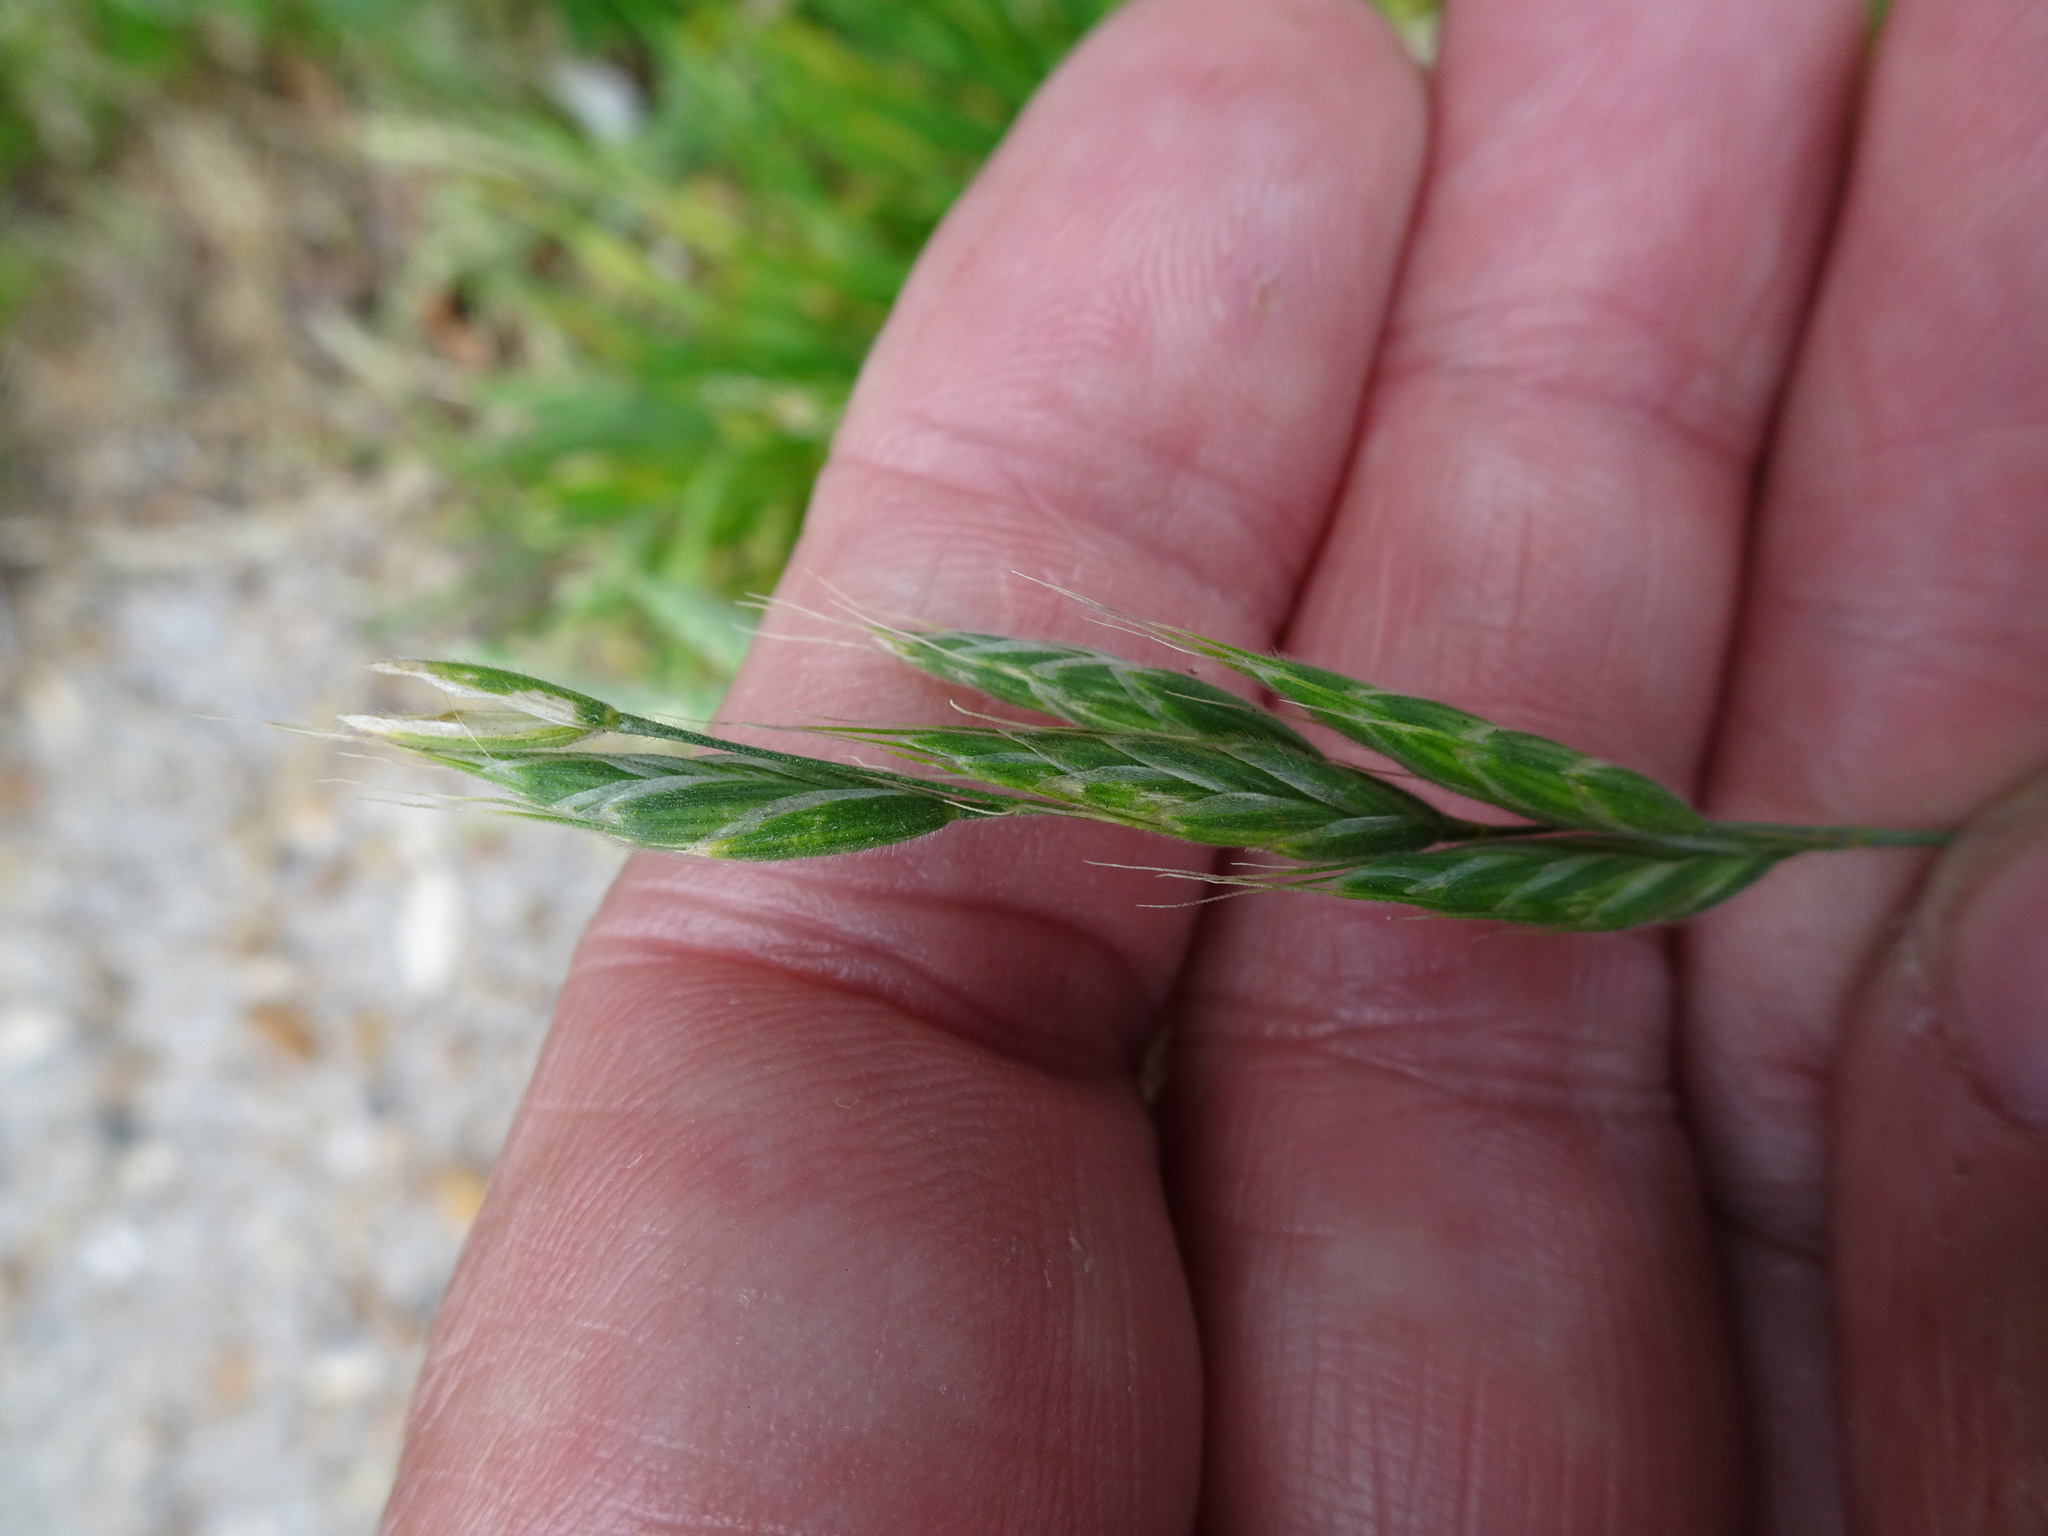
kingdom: Plantae
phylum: Tracheophyta
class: Liliopsida
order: Poales
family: Poaceae
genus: Bromus
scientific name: Bromus hordeaceus
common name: Soft brome
